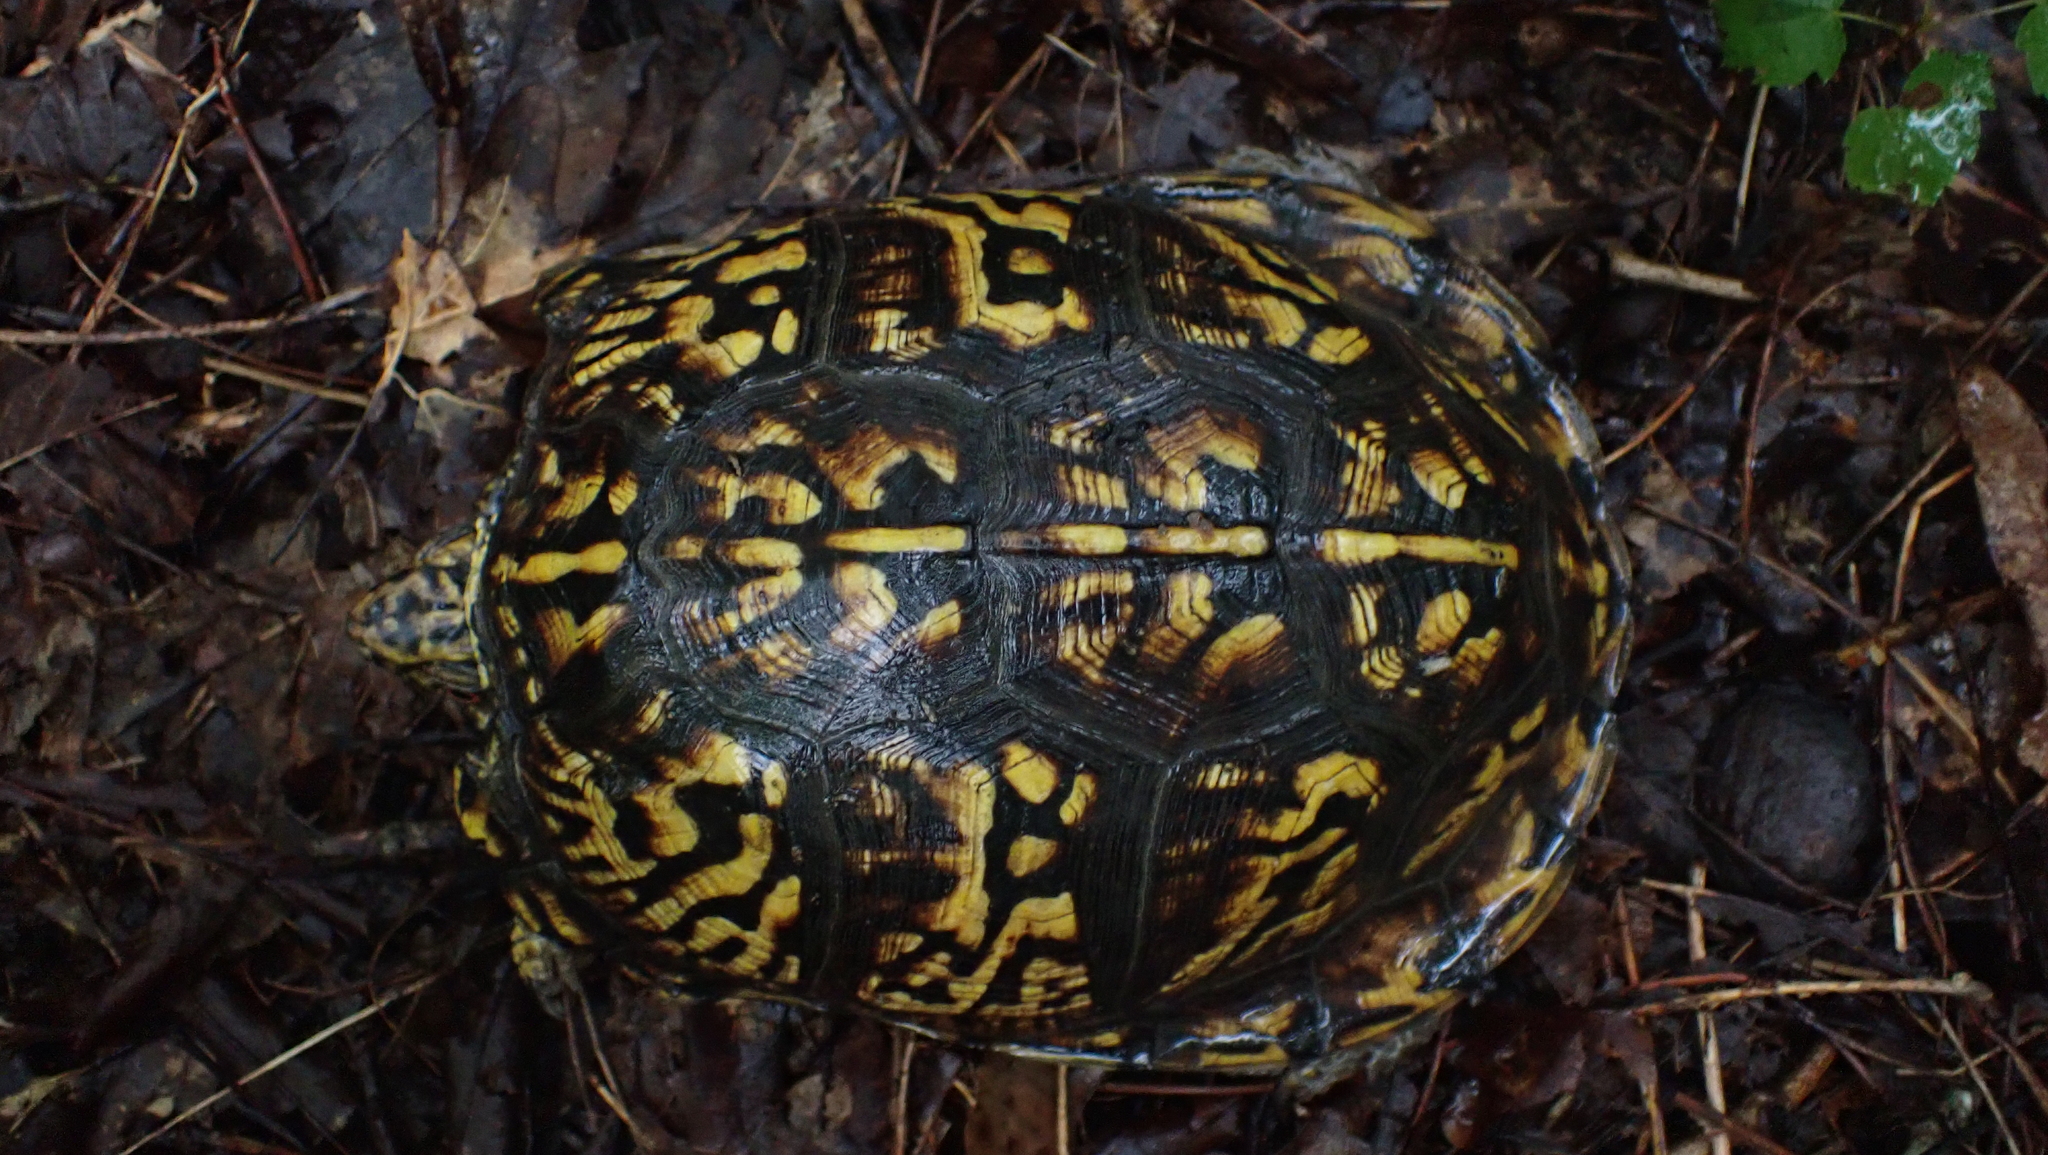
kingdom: Animalia
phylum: Chordata
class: Testudines
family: Emydidae
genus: Terrapene
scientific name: Terrapene carolina
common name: Common box turtle
